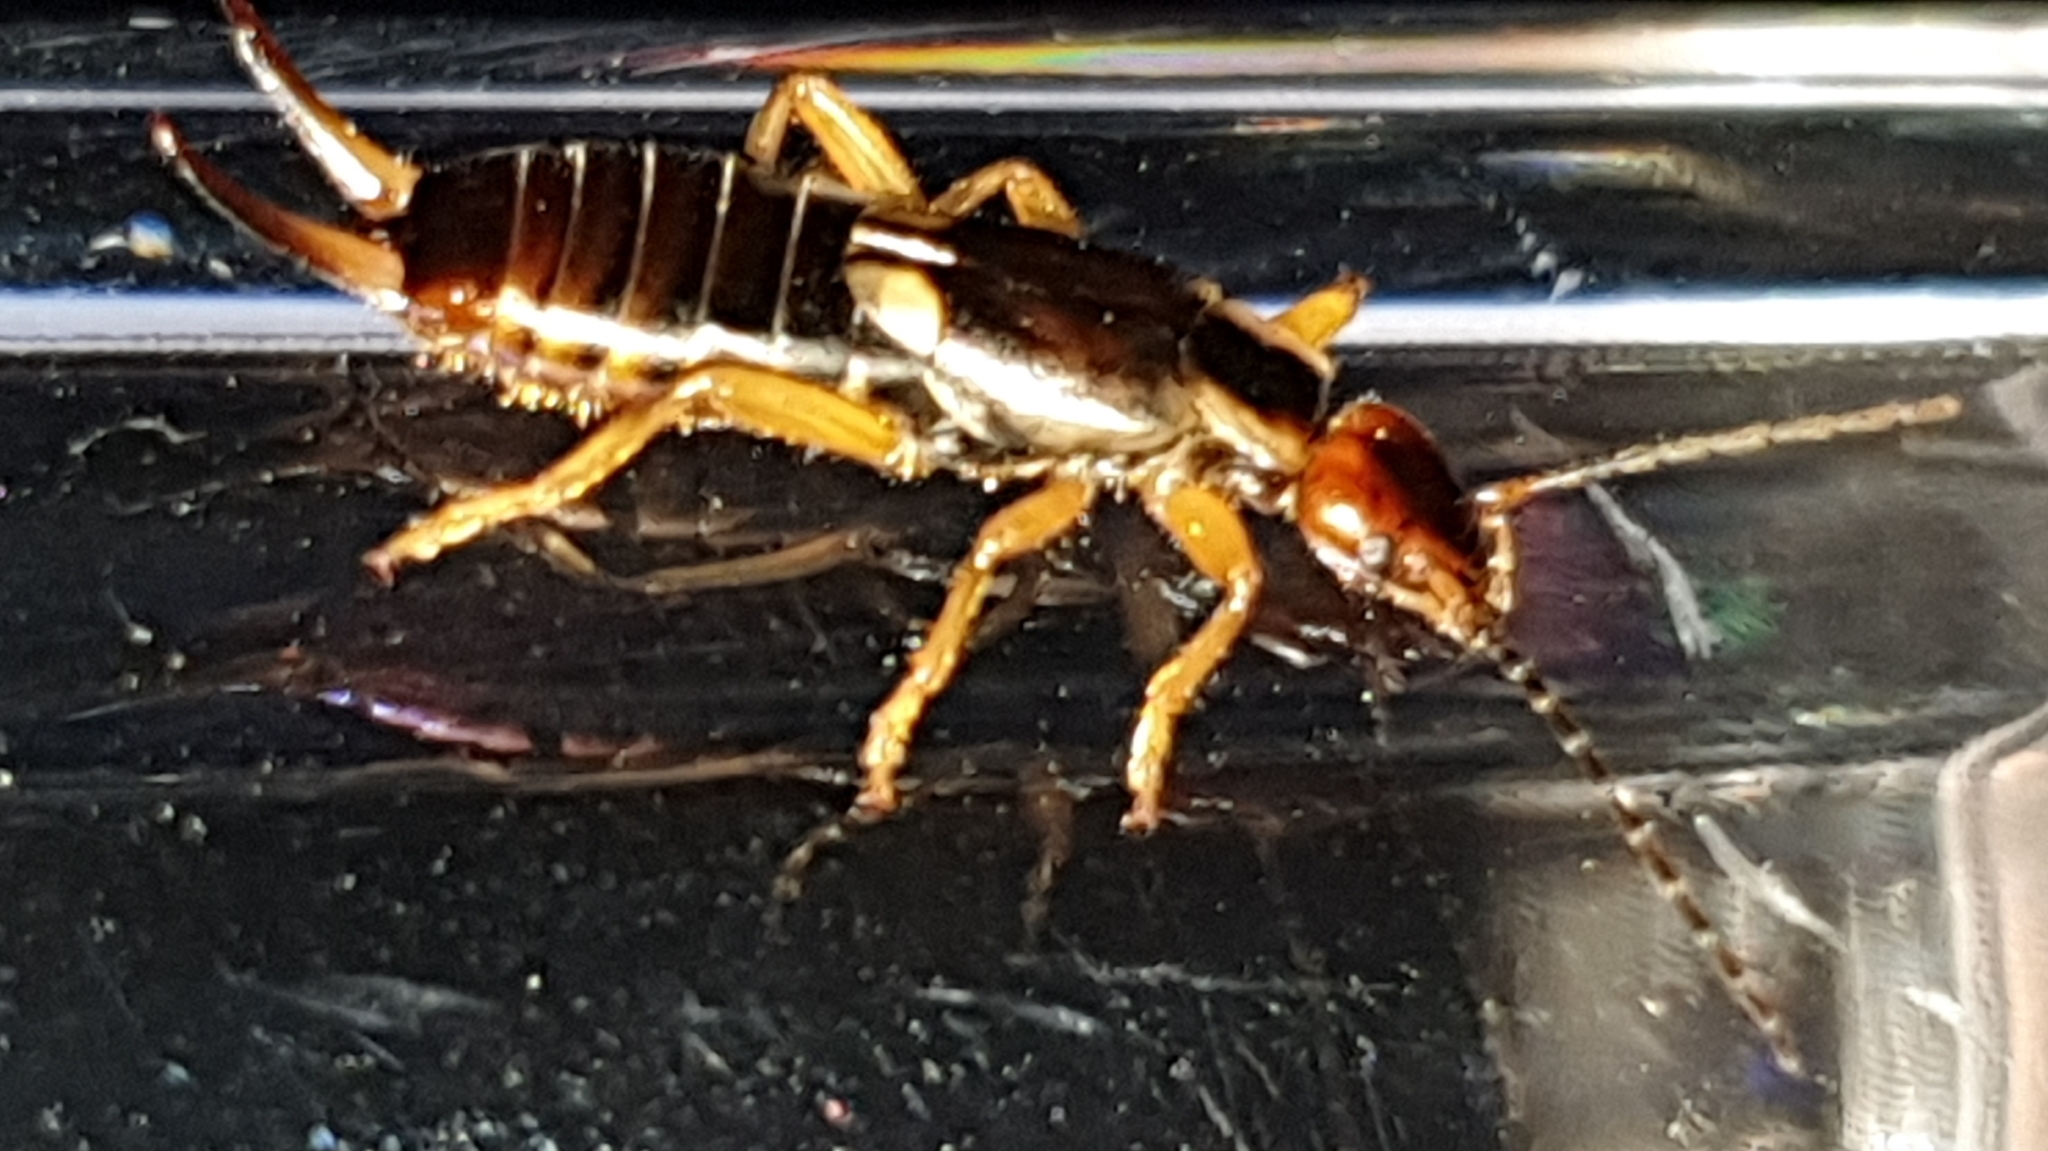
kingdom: Animalia
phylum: Arthropoda
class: Insecta
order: Dermaptera
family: Forficulidae
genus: Forficula
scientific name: Forficula
